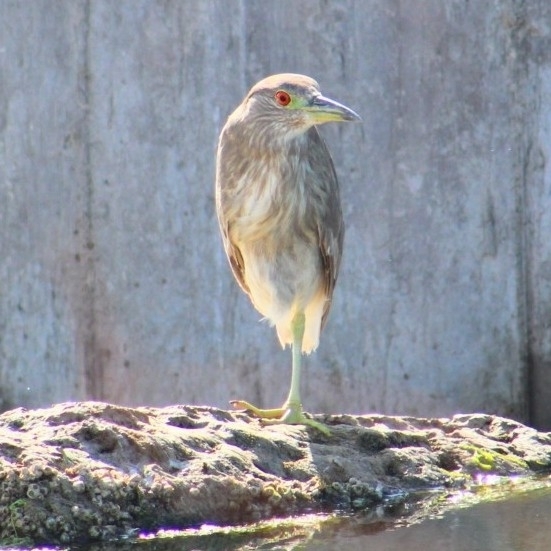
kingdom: Animalia
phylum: Chordata
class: Aves
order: Pelecaniformes
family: Ardeidae
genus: Nycticorax
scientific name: Nycticorax nycticorax
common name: Black-crowned night heron
